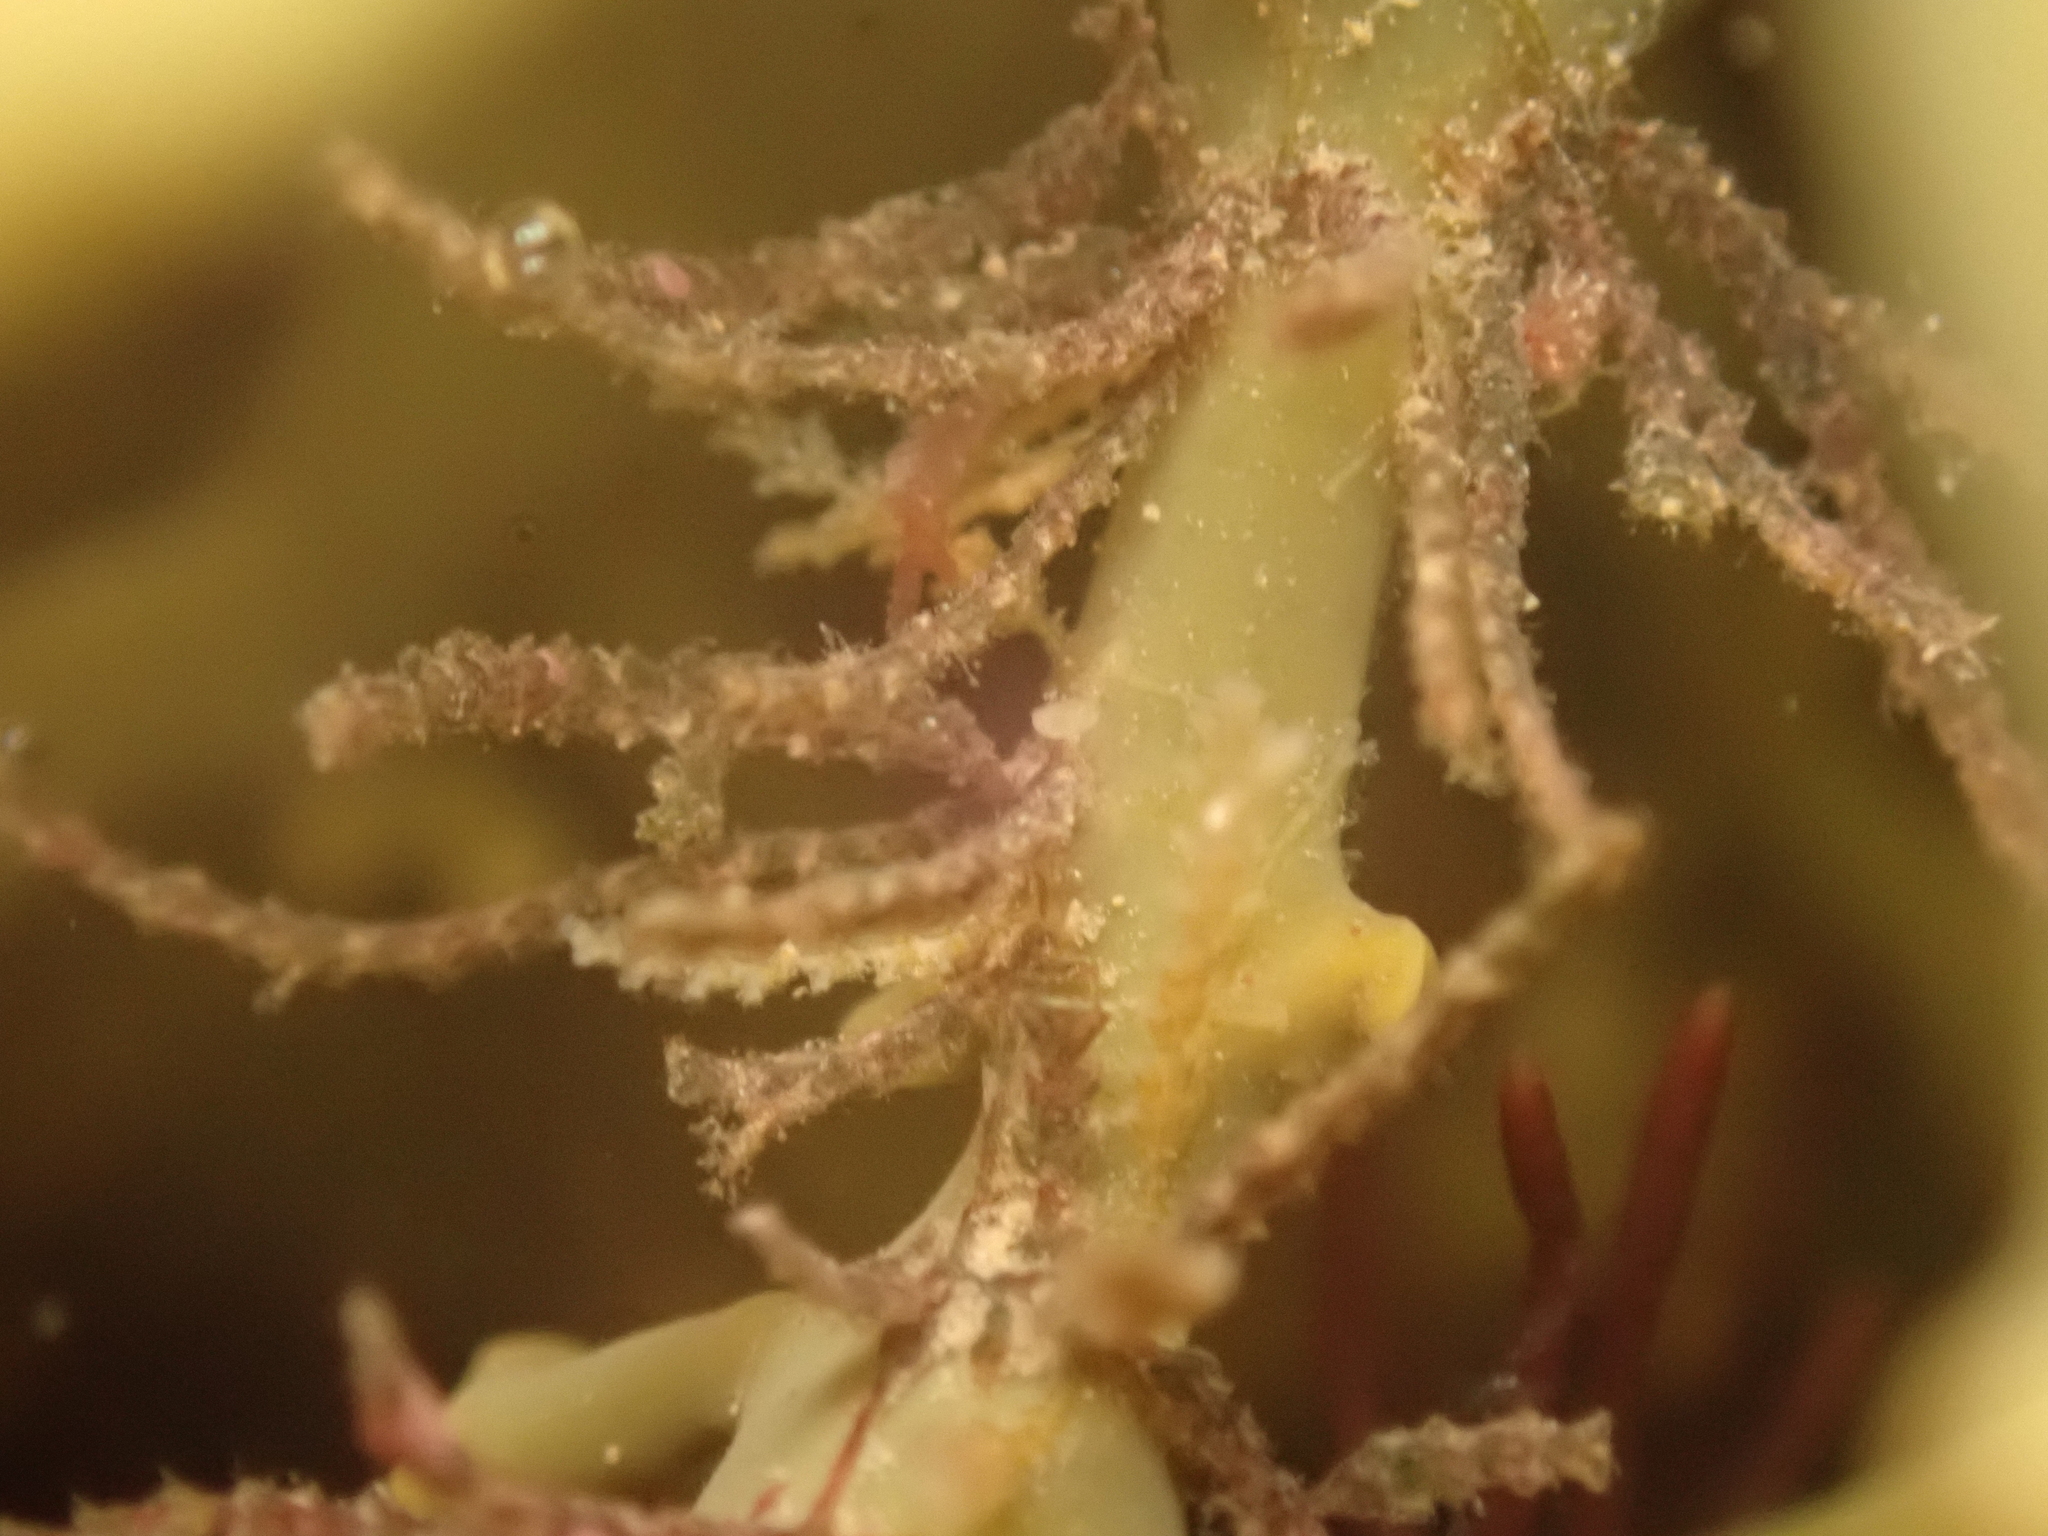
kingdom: Animalia
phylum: Cnidaria
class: Hydrozoa
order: Leptothecata
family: Sertulariidae
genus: Dynamena
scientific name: Dynamena pumila
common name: Sea oak
